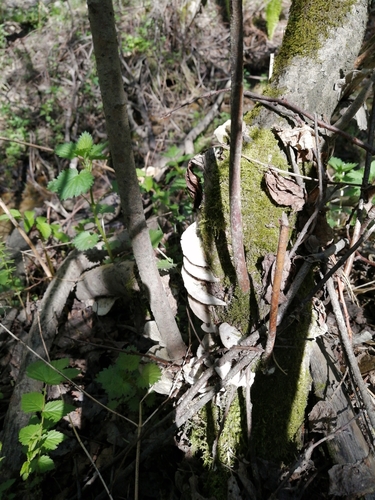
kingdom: Fungi
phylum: Basidiomycota
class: Agaricomycetes
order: Polyporales
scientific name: Polyporales
